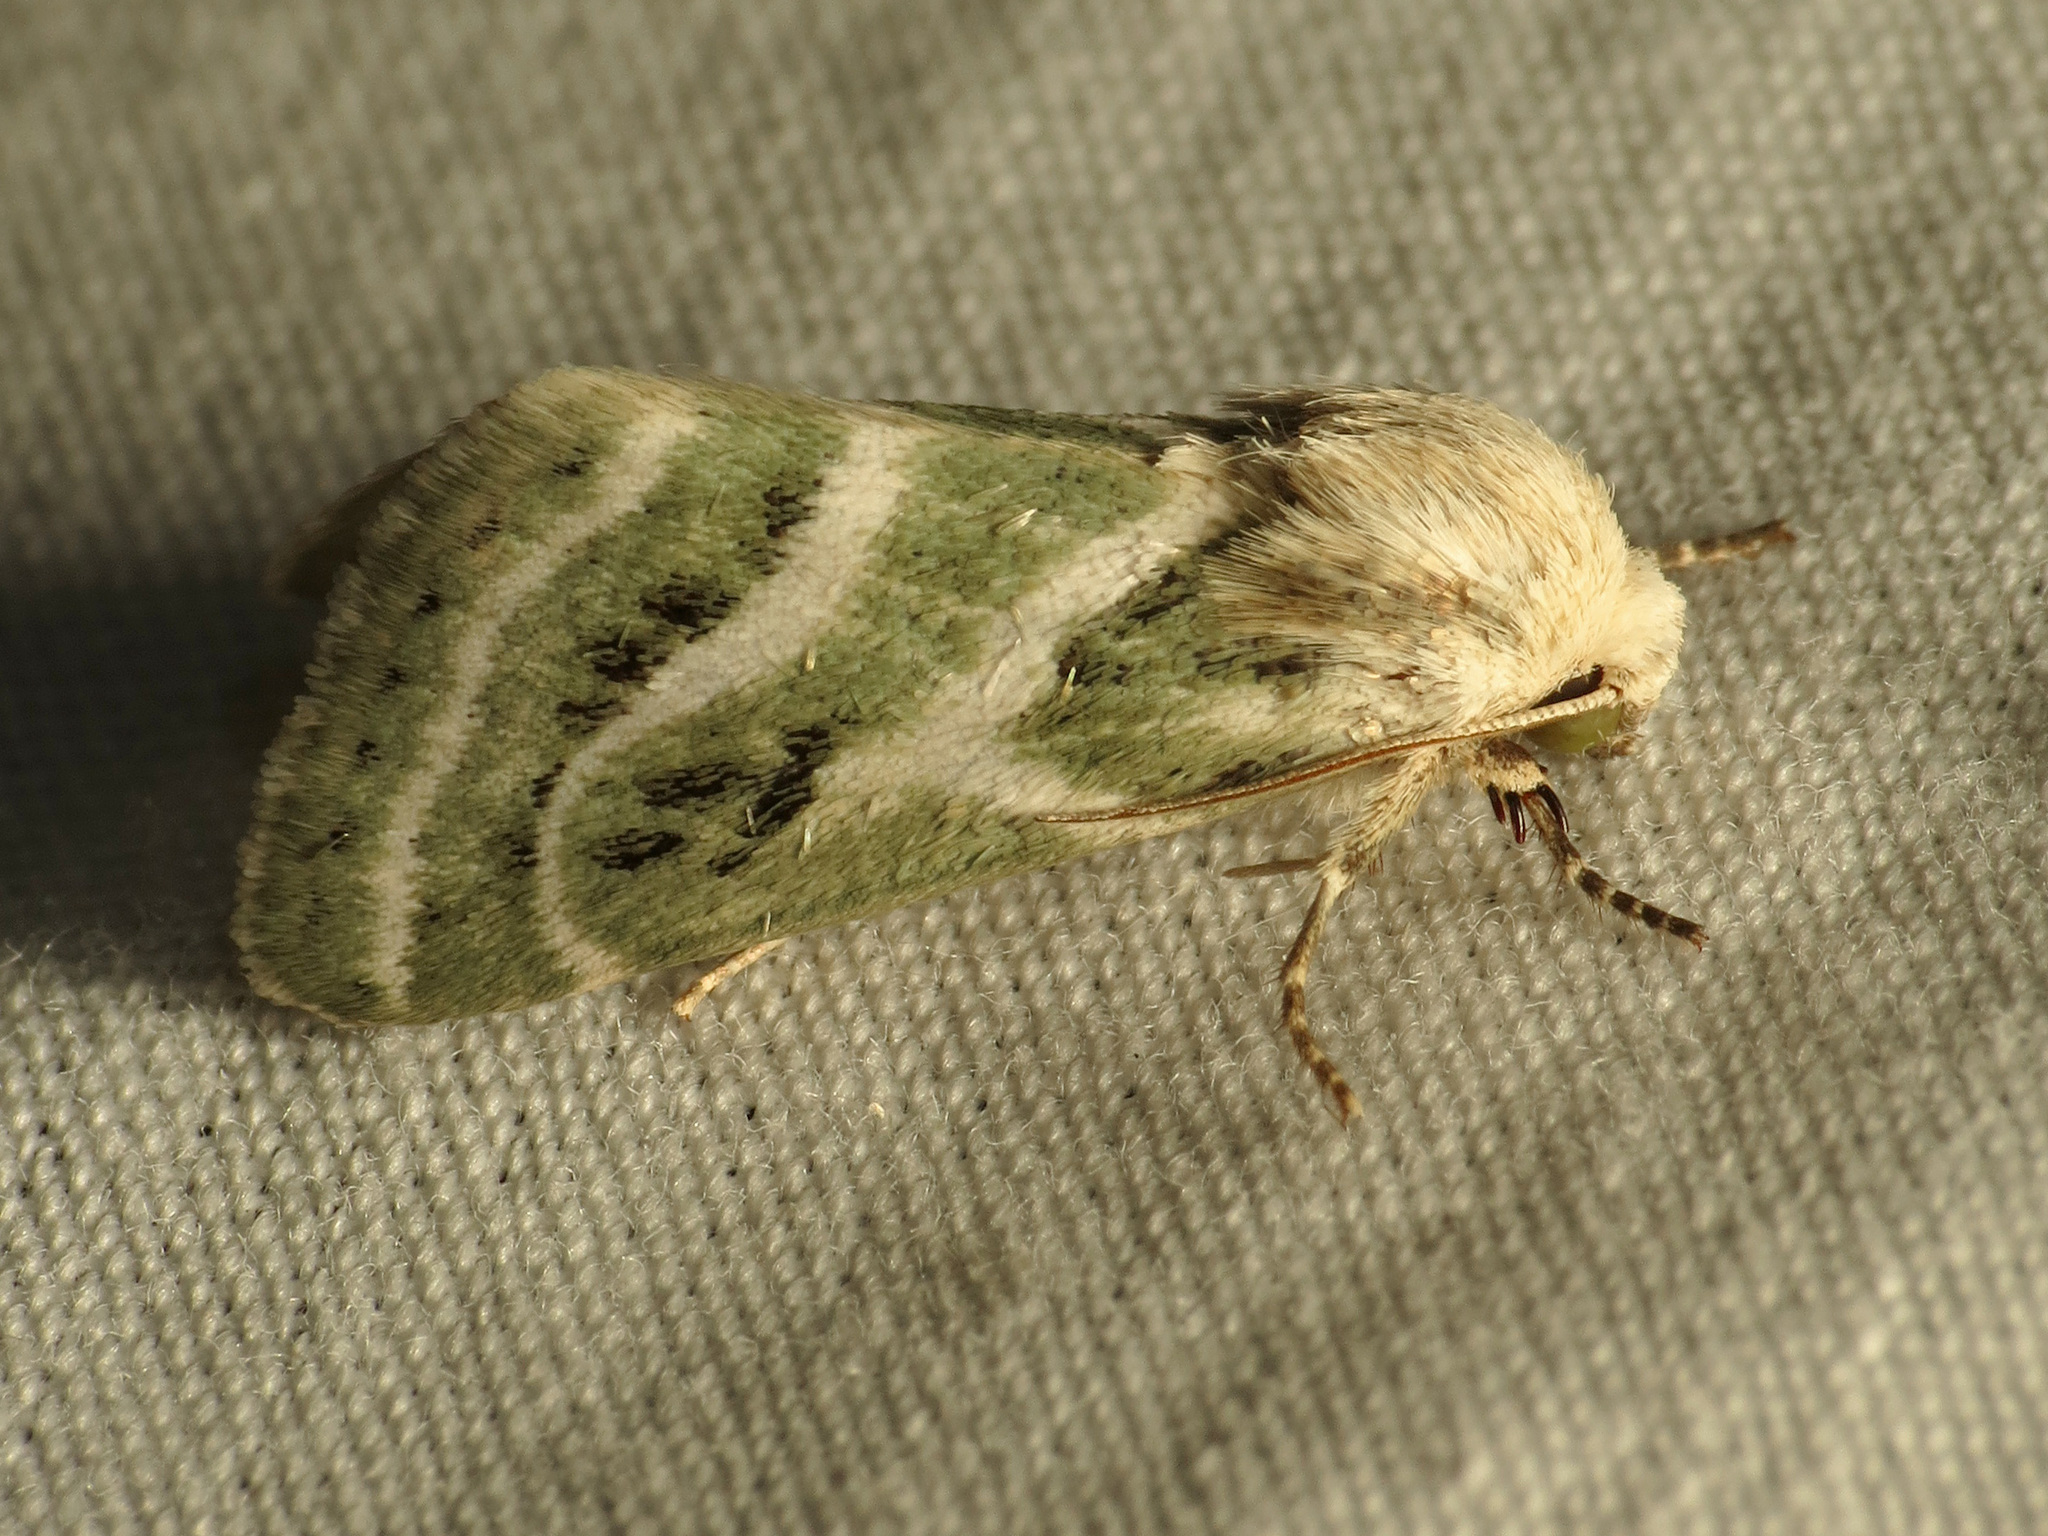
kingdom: Animalia
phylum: Arthropoda
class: Insecta
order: Lepidoptera
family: Noctuidae
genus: Schinia
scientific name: Schinia accessa
